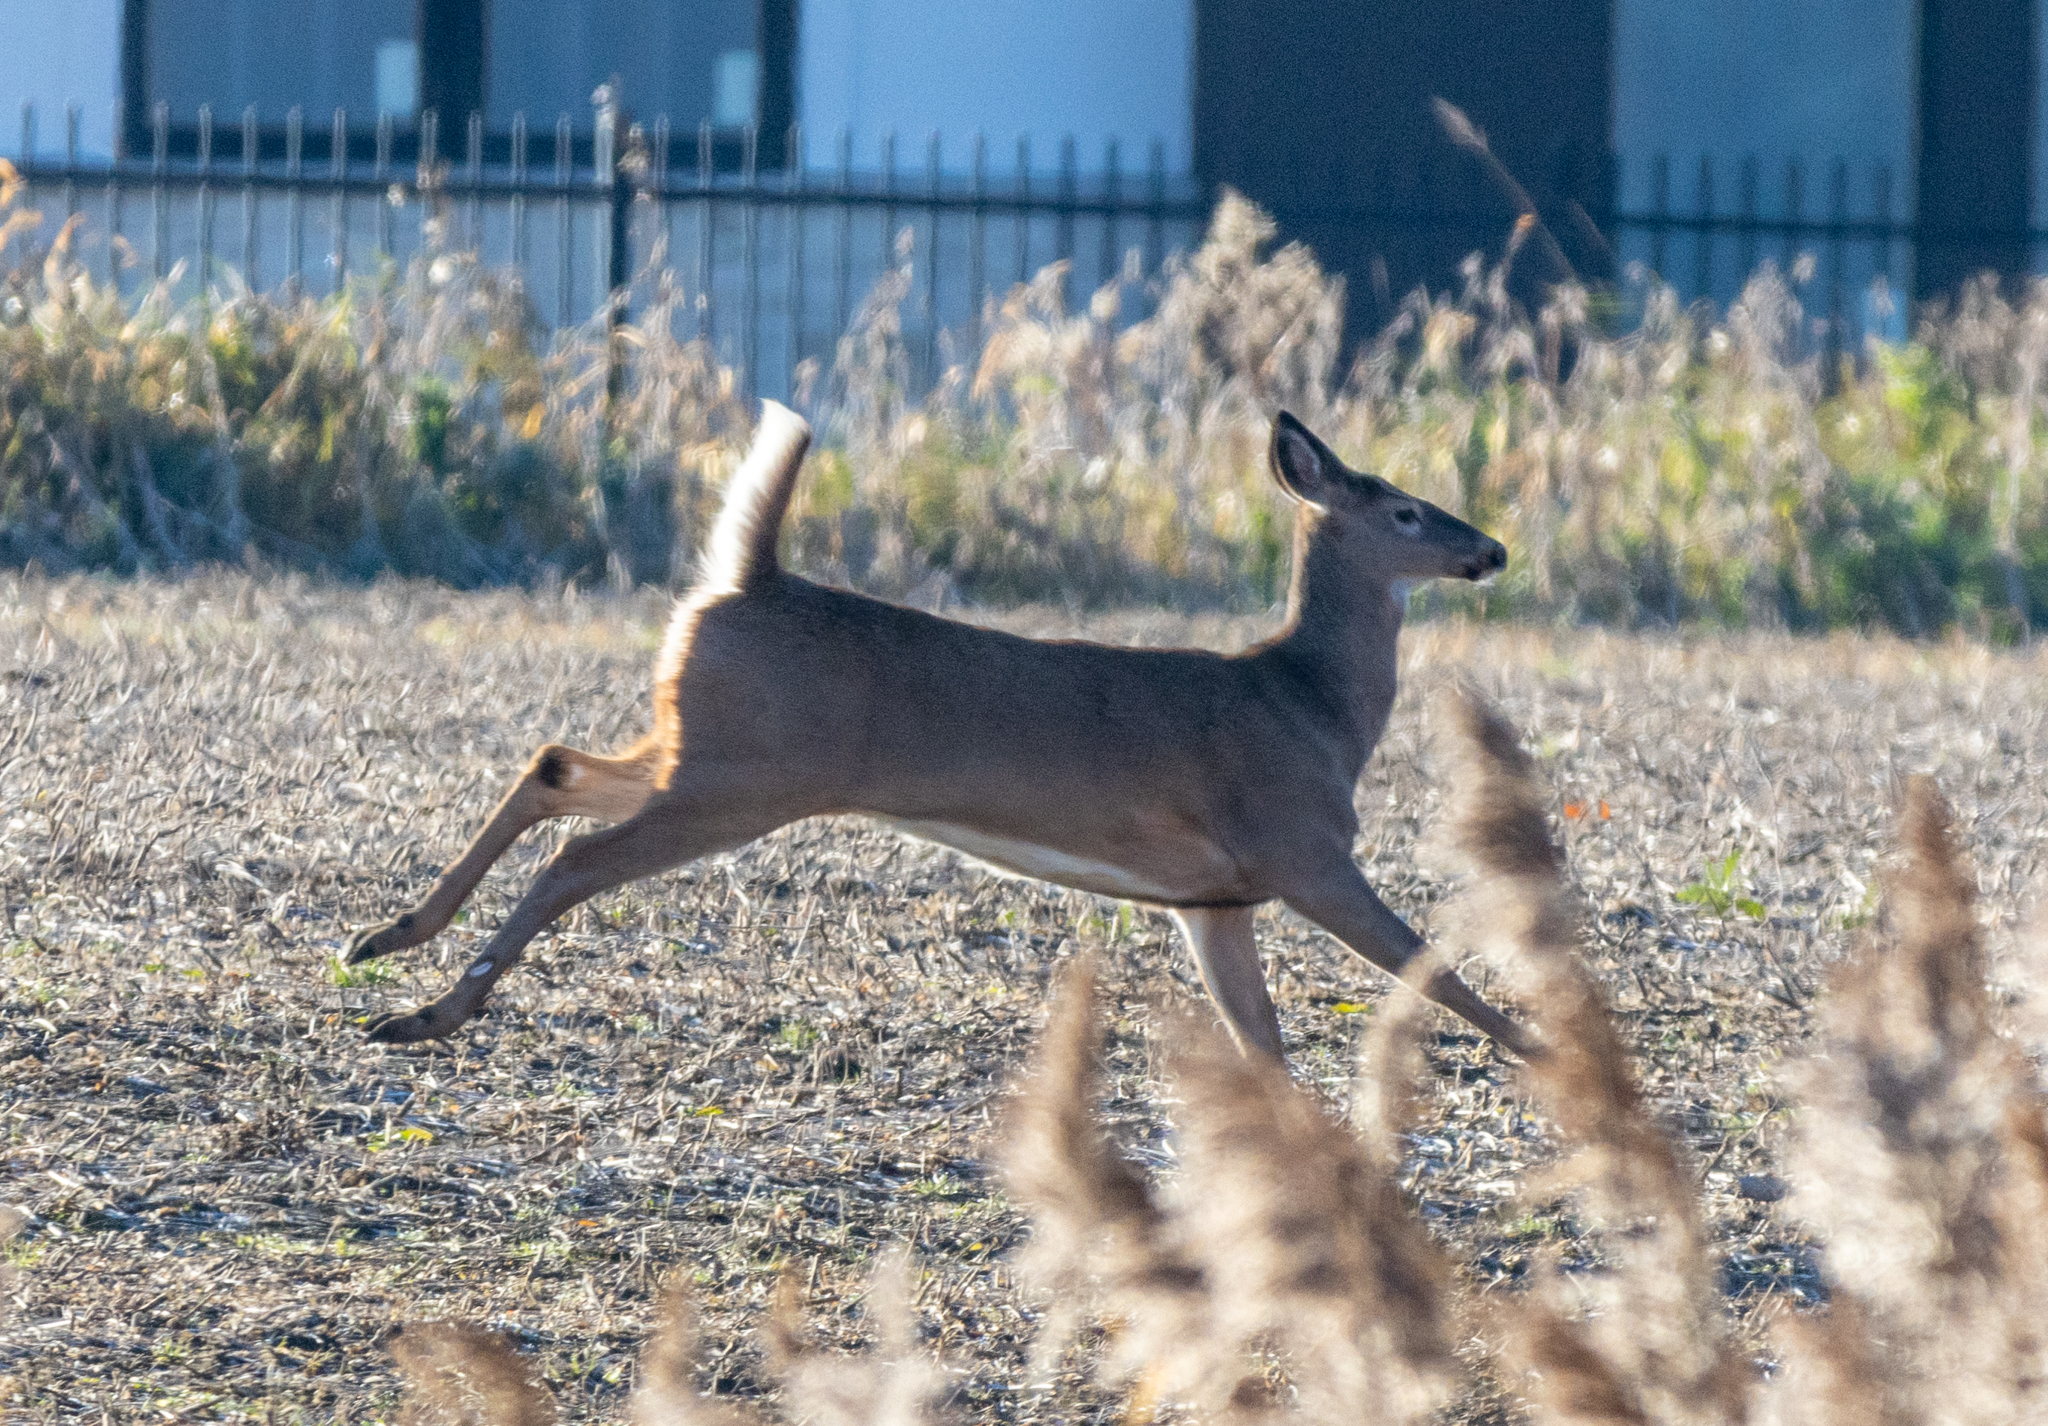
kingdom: Animalia
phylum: Chordata
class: Mammalia
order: Artiodactyla
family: Cervidae
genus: Odocoileus
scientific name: Odocoileus virginianus
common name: White-tailed deer
